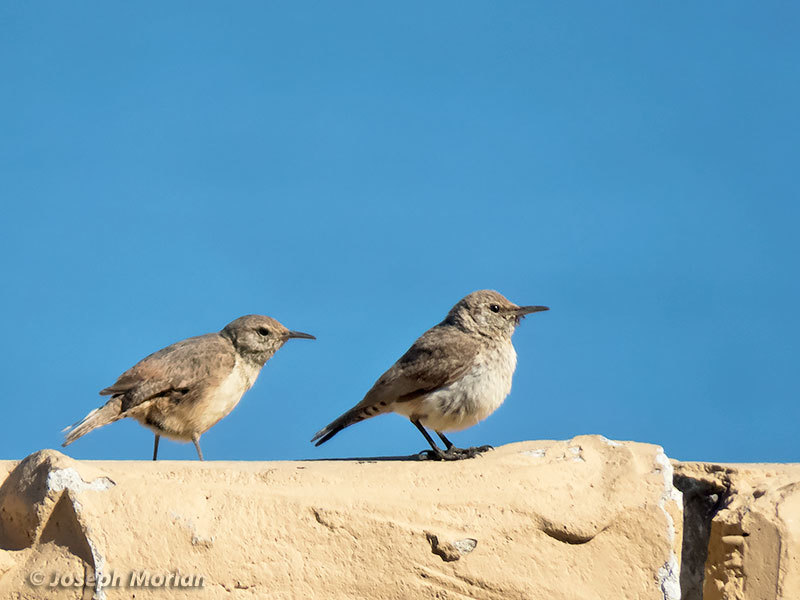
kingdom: Animalia
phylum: Chordata
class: Aves
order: Passeriformes
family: Troglodytidae
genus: Salpinctes
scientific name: Salpinctes obsoletus
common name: Rock wren
